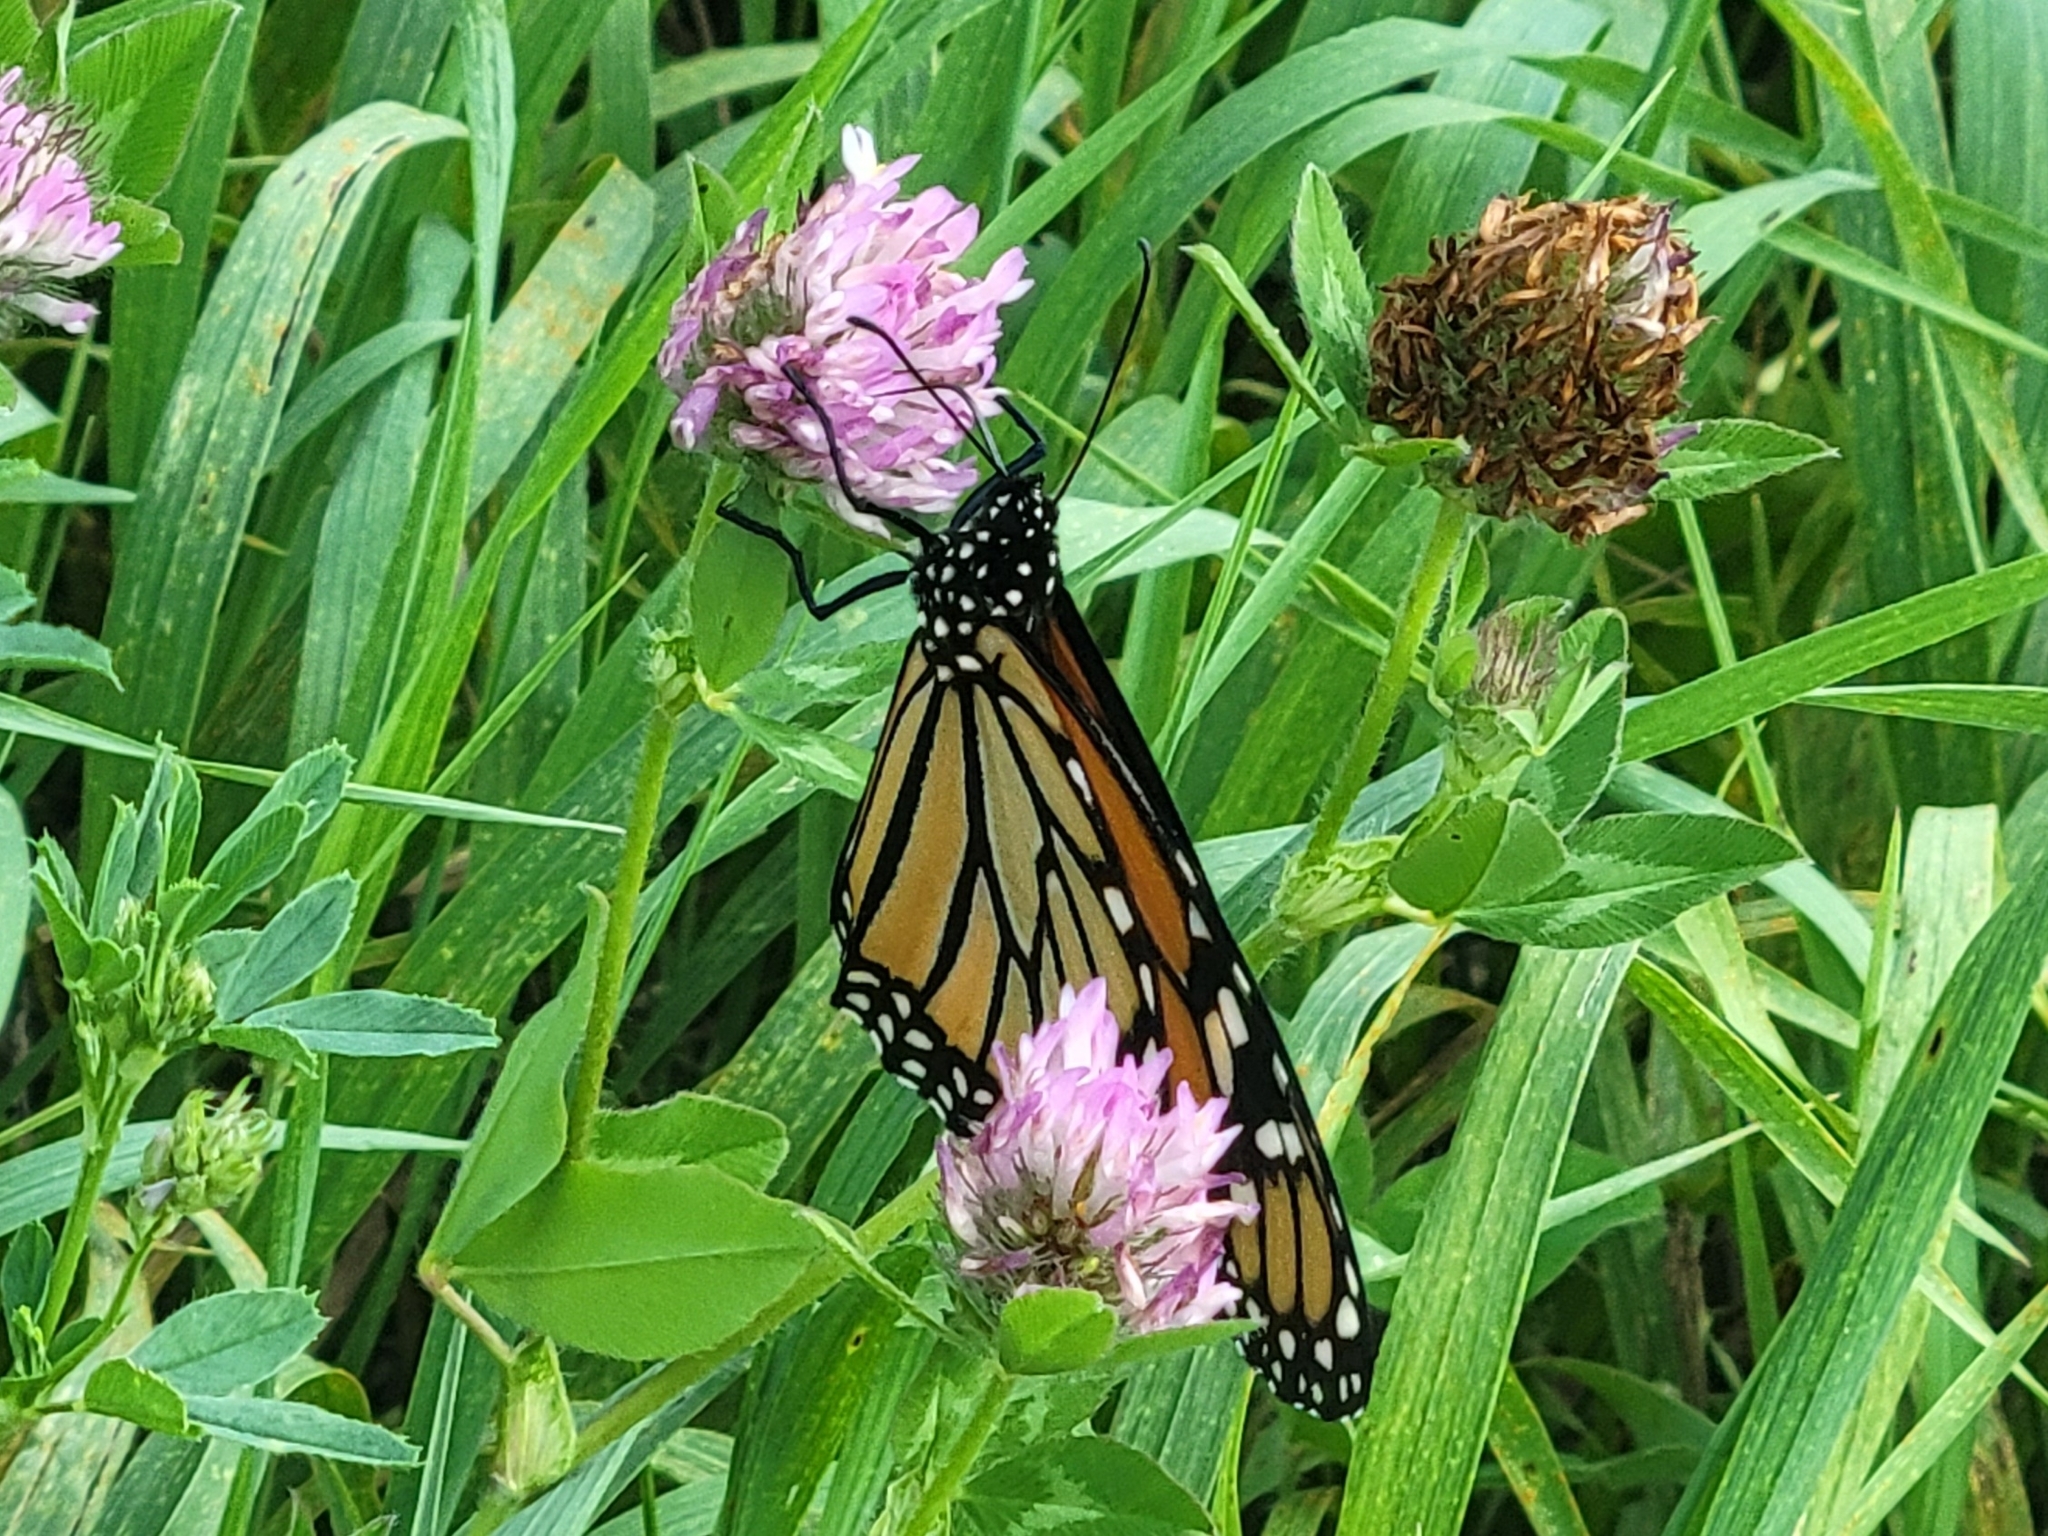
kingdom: Animalia
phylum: Arthropoda
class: Insecta
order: Lepidoptera
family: Nymphalidae
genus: Danaus
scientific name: Danaus plexippus
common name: Monarch
